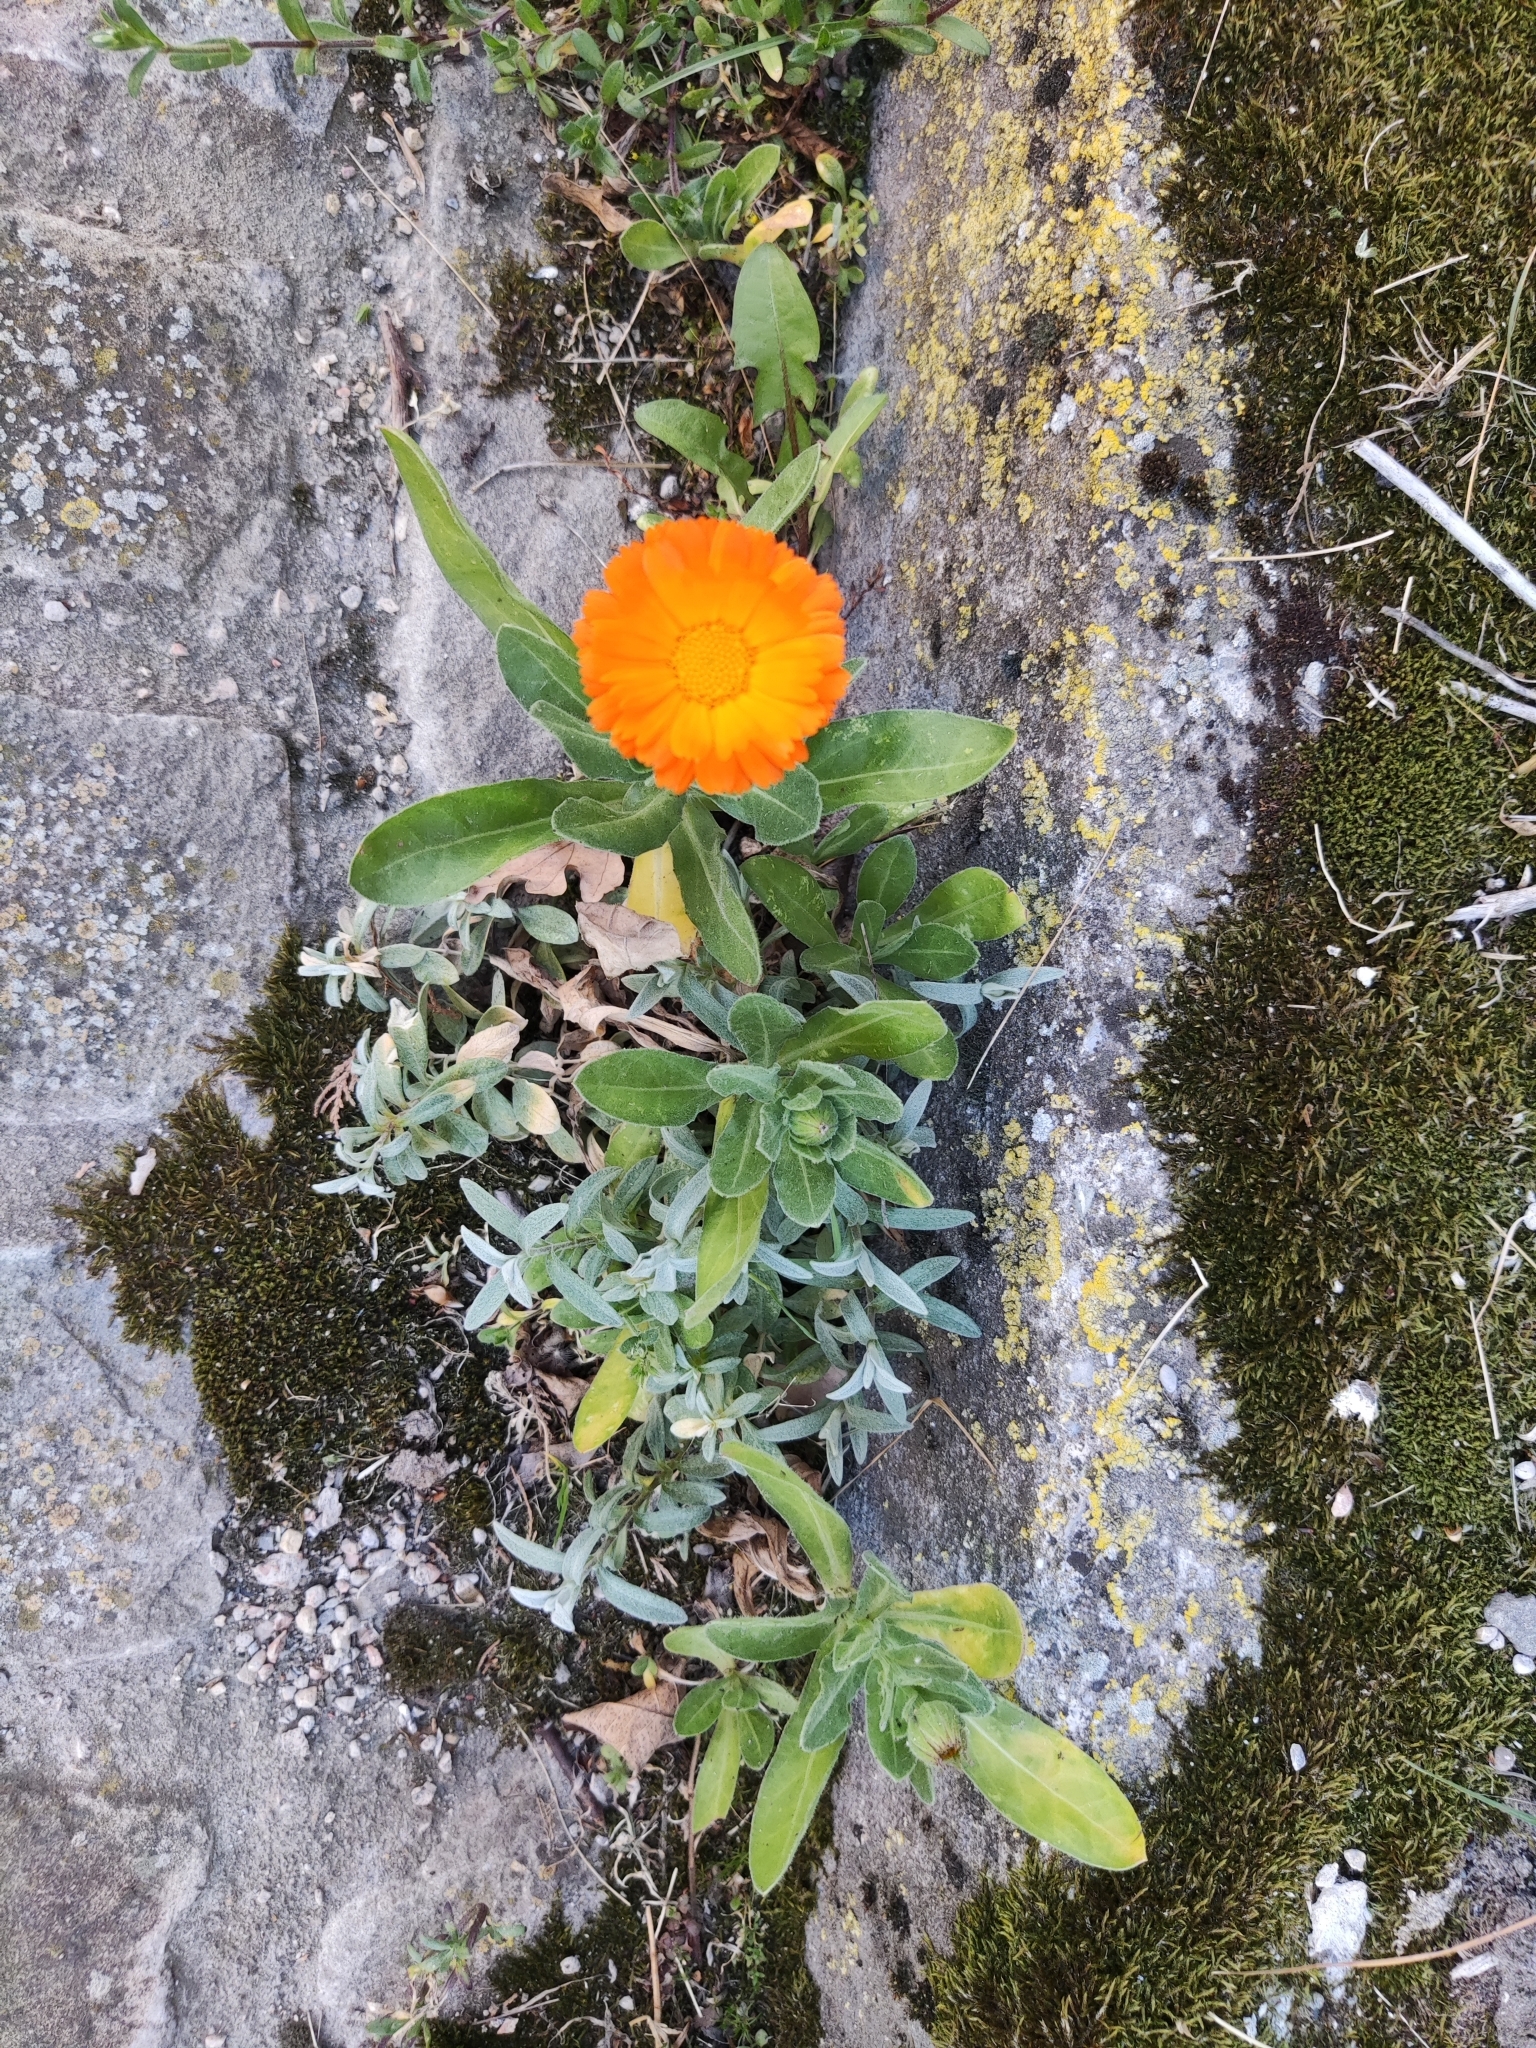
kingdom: Plantae
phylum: Tracheophyta
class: Magnoliopsida
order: Asterales
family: Asteraceae
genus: Calendula
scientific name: Calendula officinalis
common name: Pot marigold
